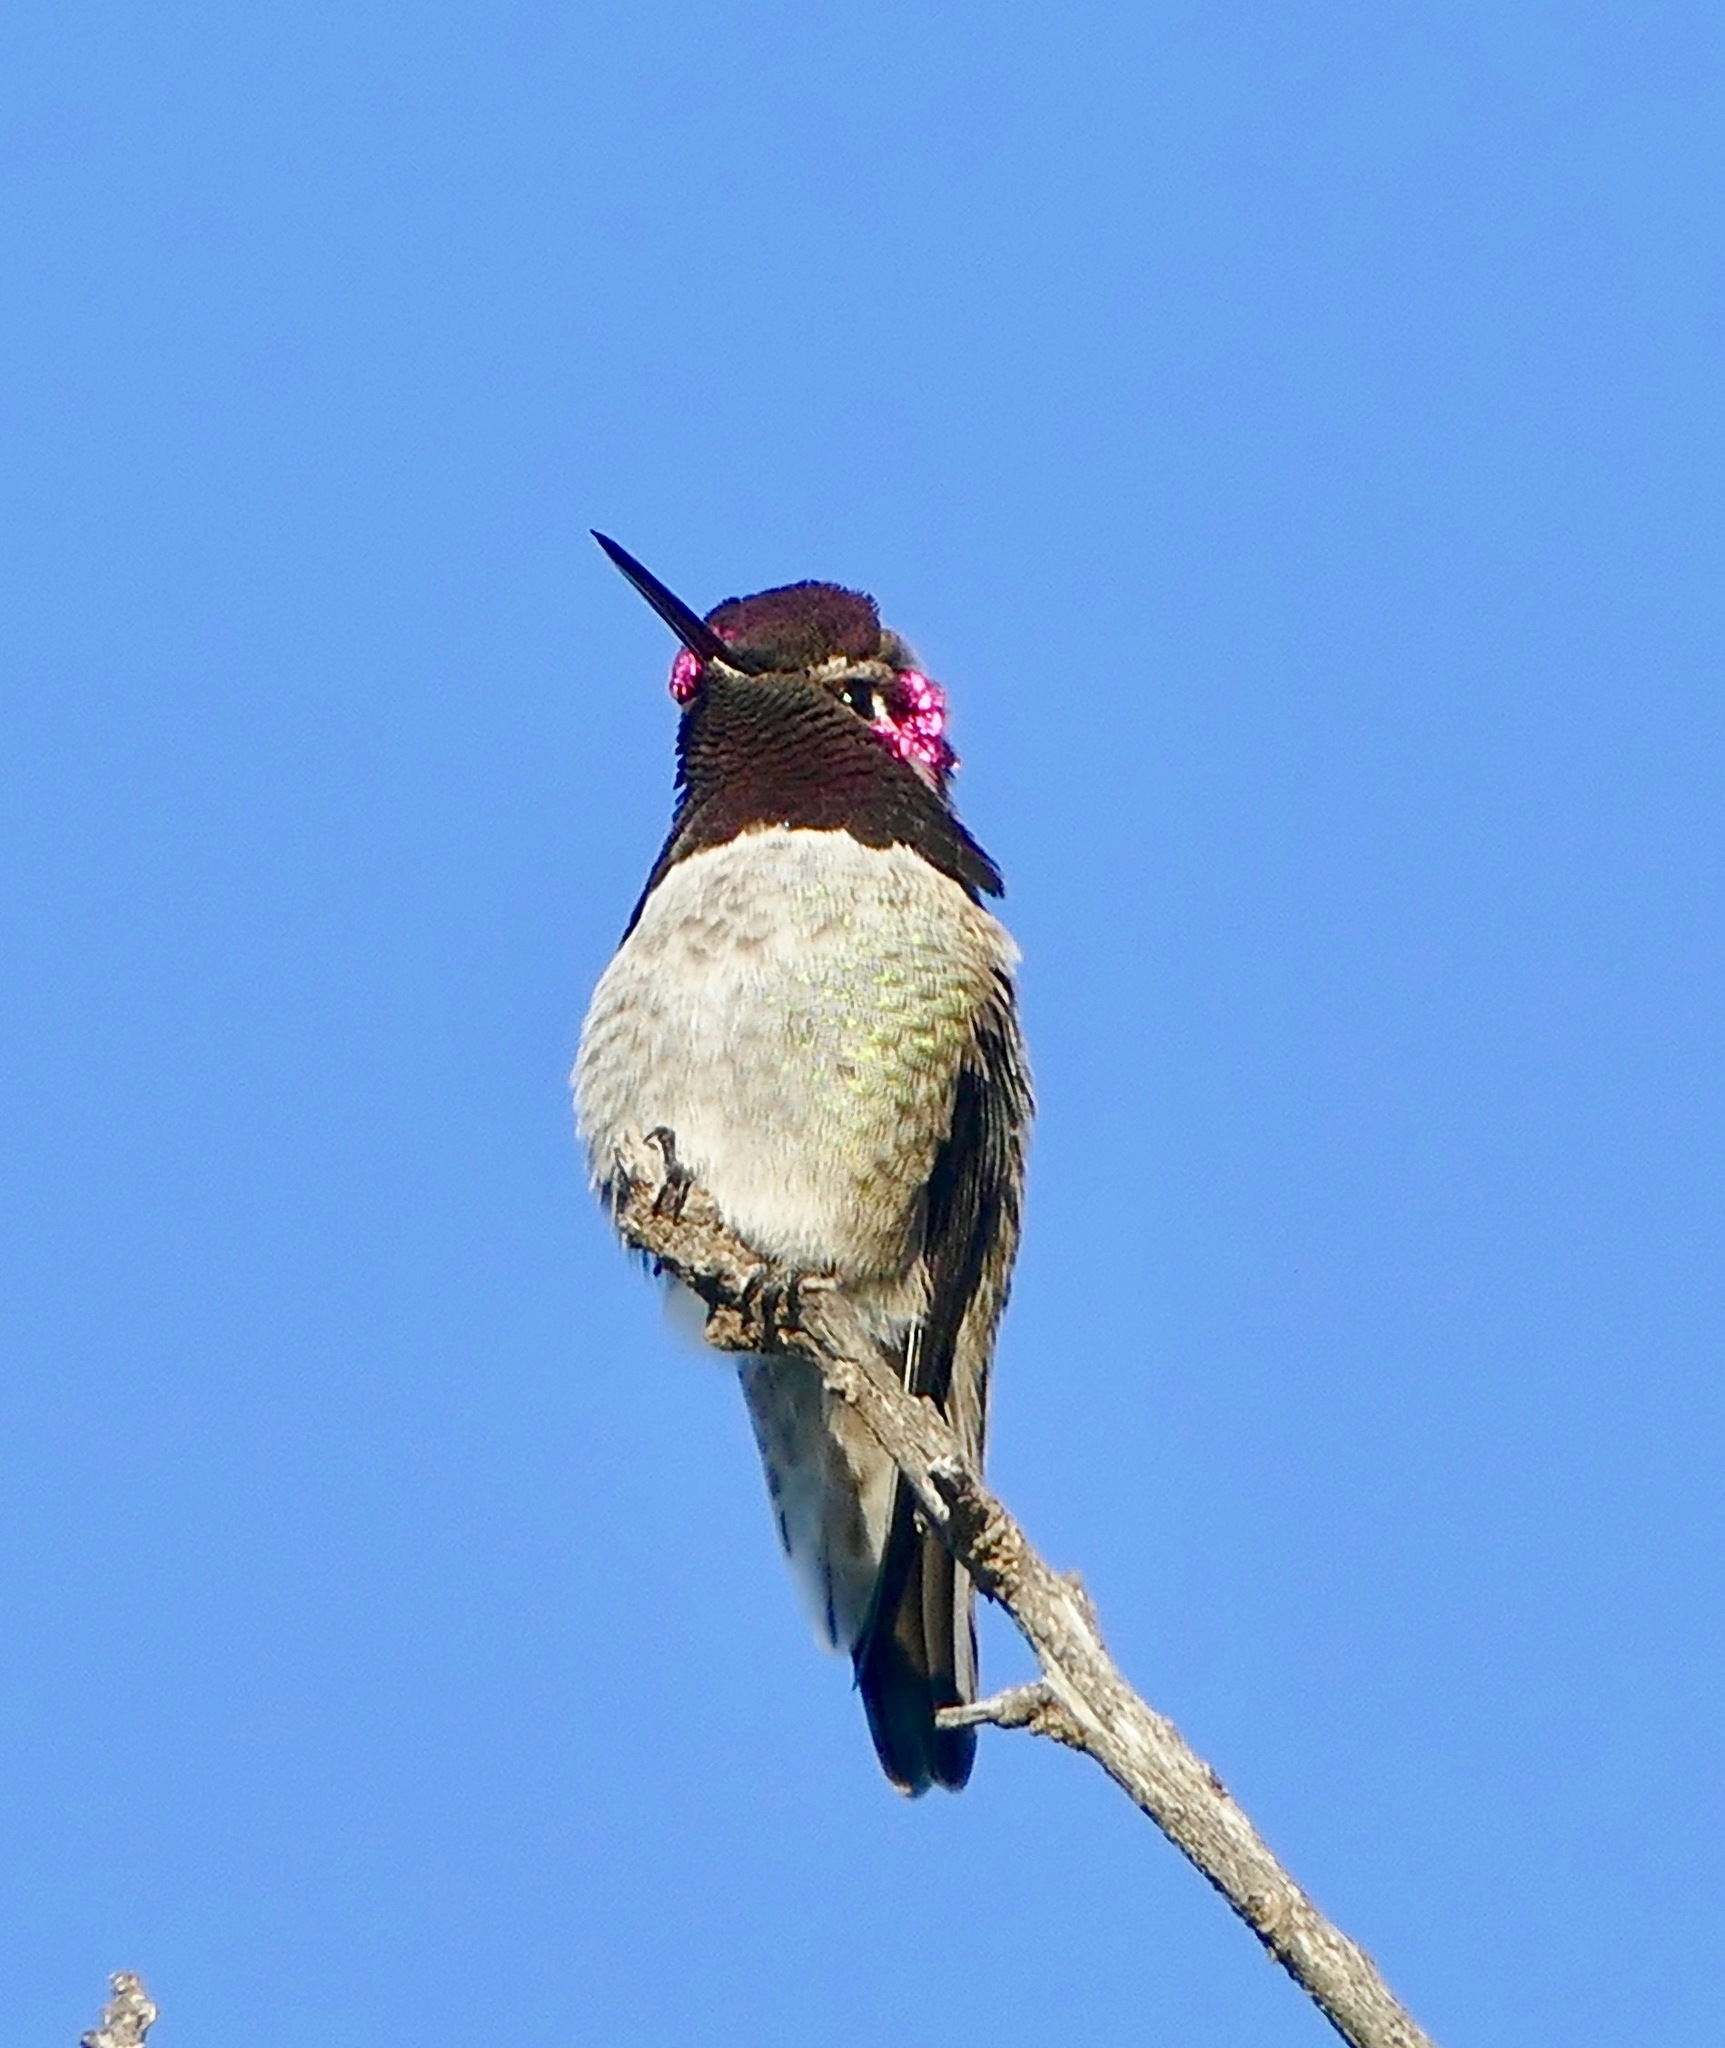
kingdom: Animalia
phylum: Chordata
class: Aves
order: Apodiformes
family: Trochilidae
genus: Calypte
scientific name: Calypte anna
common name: Anna's hummingbird
